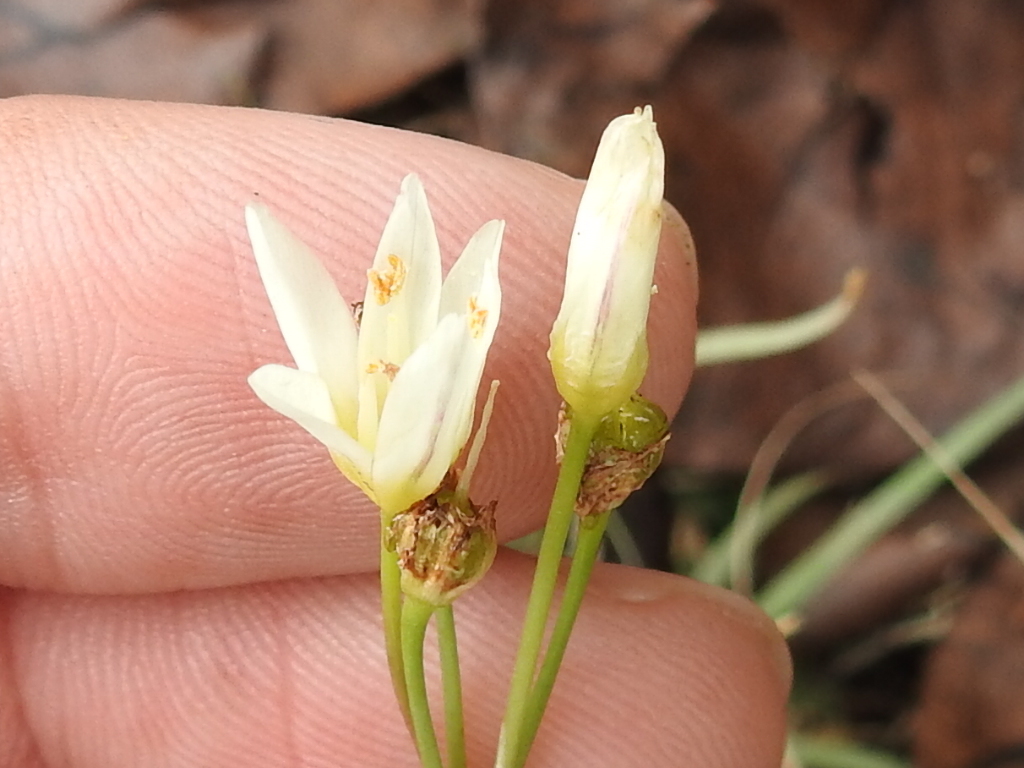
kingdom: Plantae
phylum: Tracheophyta
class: Liliopsida
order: Asparagales
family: Amaryllidaceae
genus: Nothoscordum
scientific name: Nothoscordum bivalve
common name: Crow-poison
